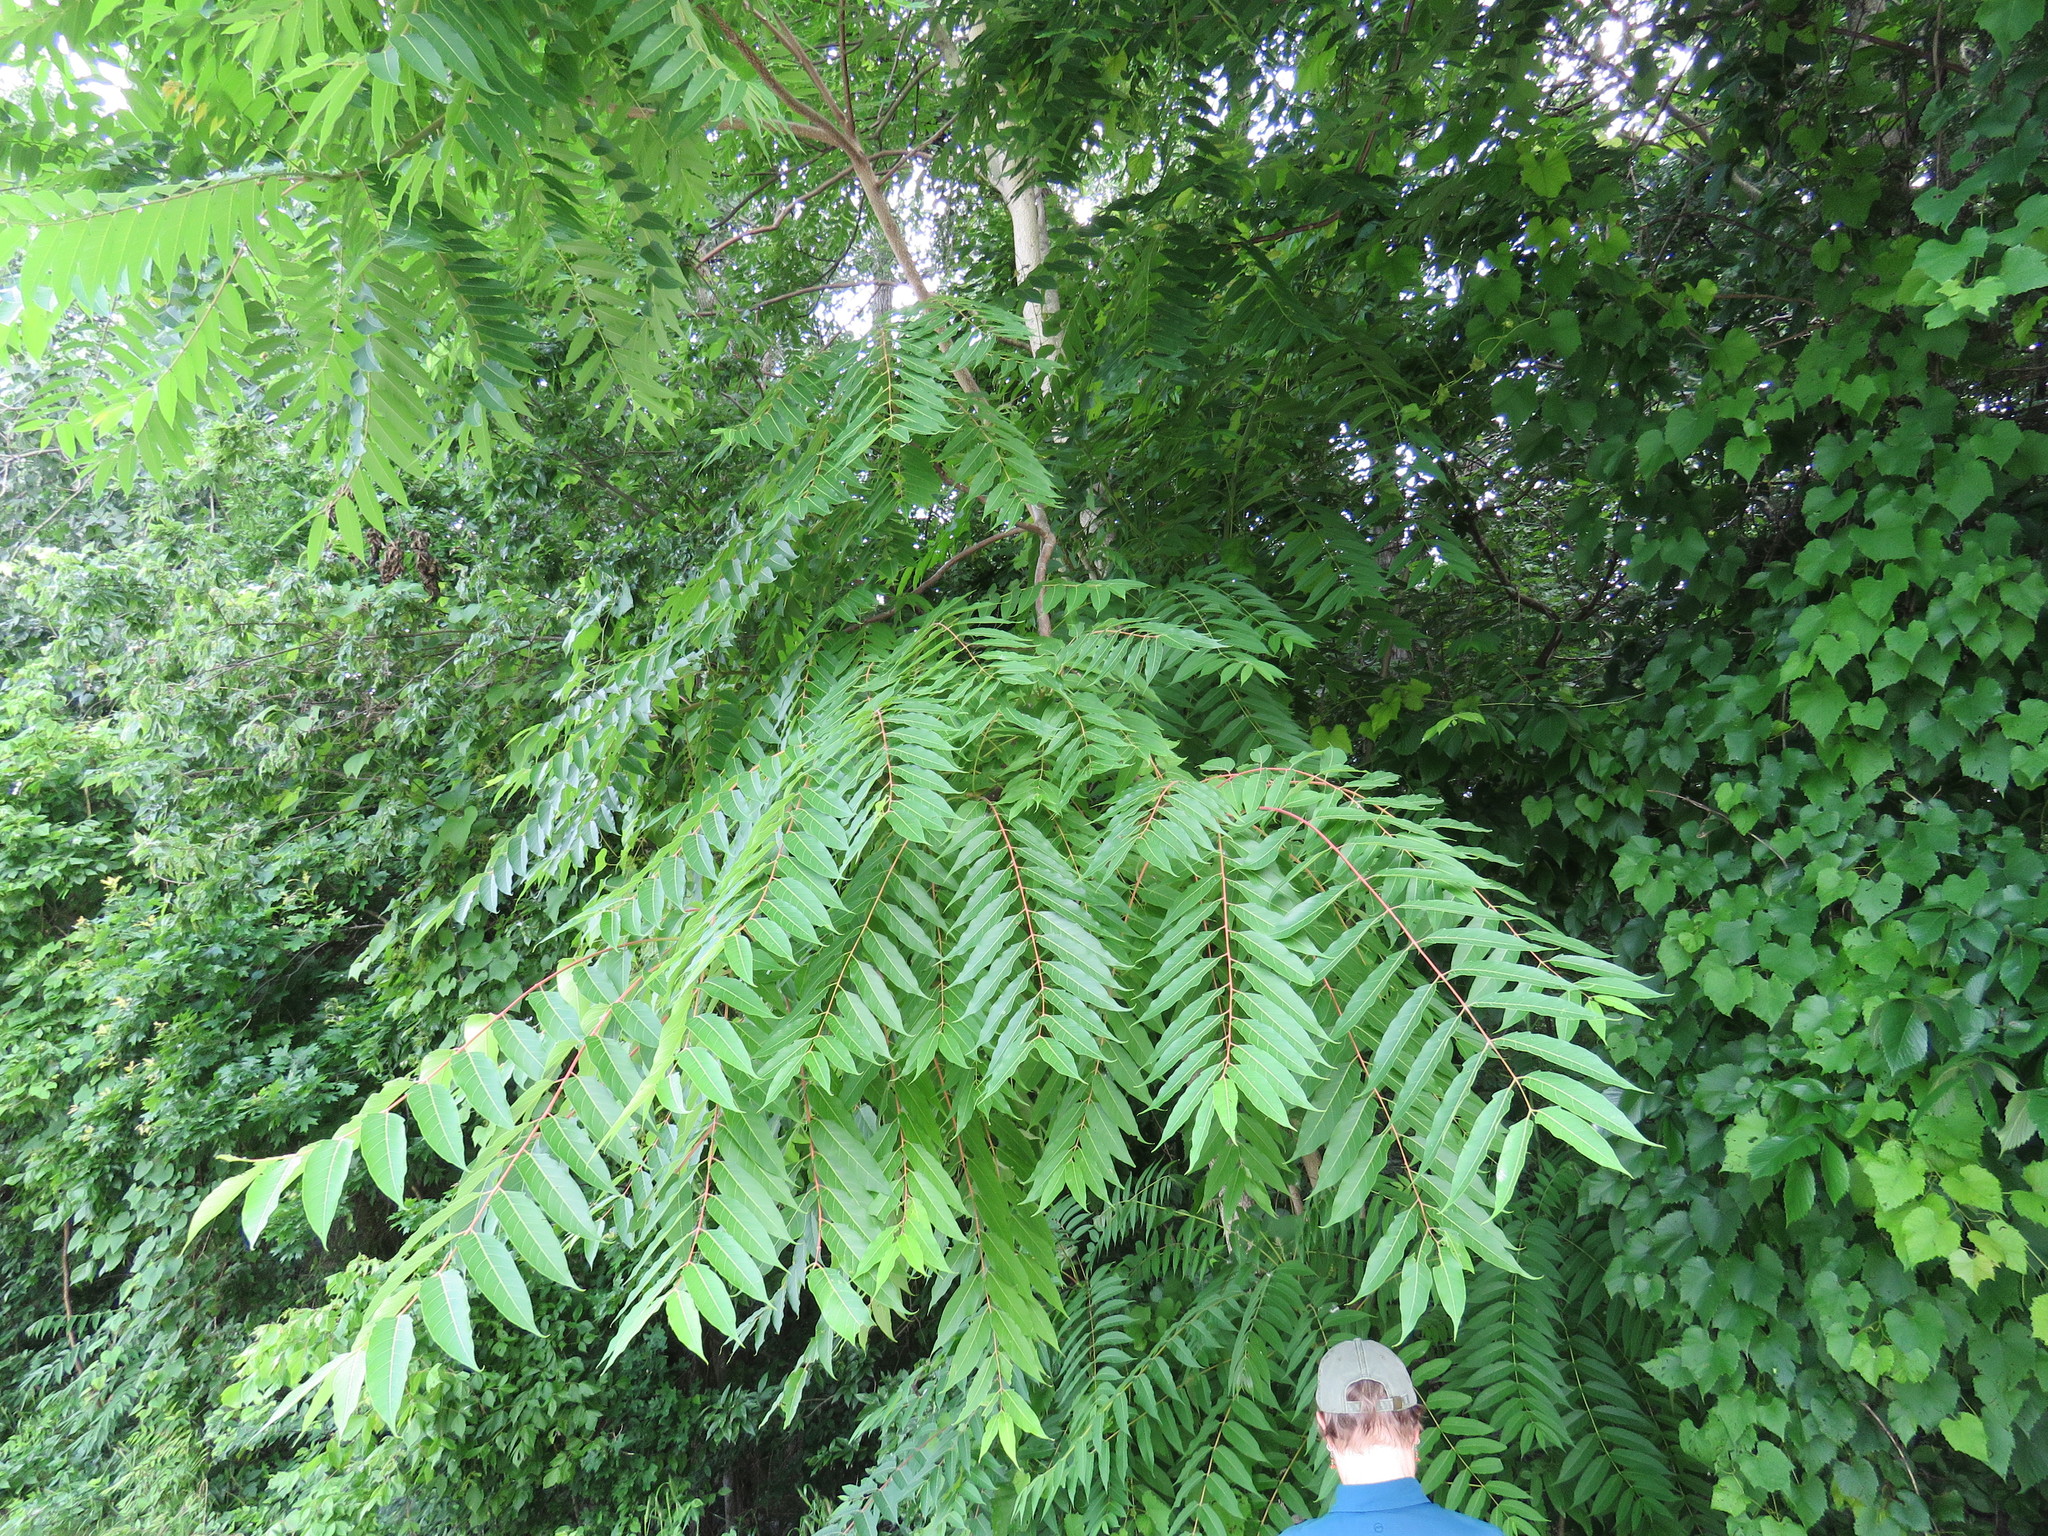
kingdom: Plantae
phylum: Tracheophyta
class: Magnoliopsida
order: Sapindales
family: Anacardiaceae
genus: Pistacia
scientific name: Pistacia chinensis
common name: Chinese pistache
